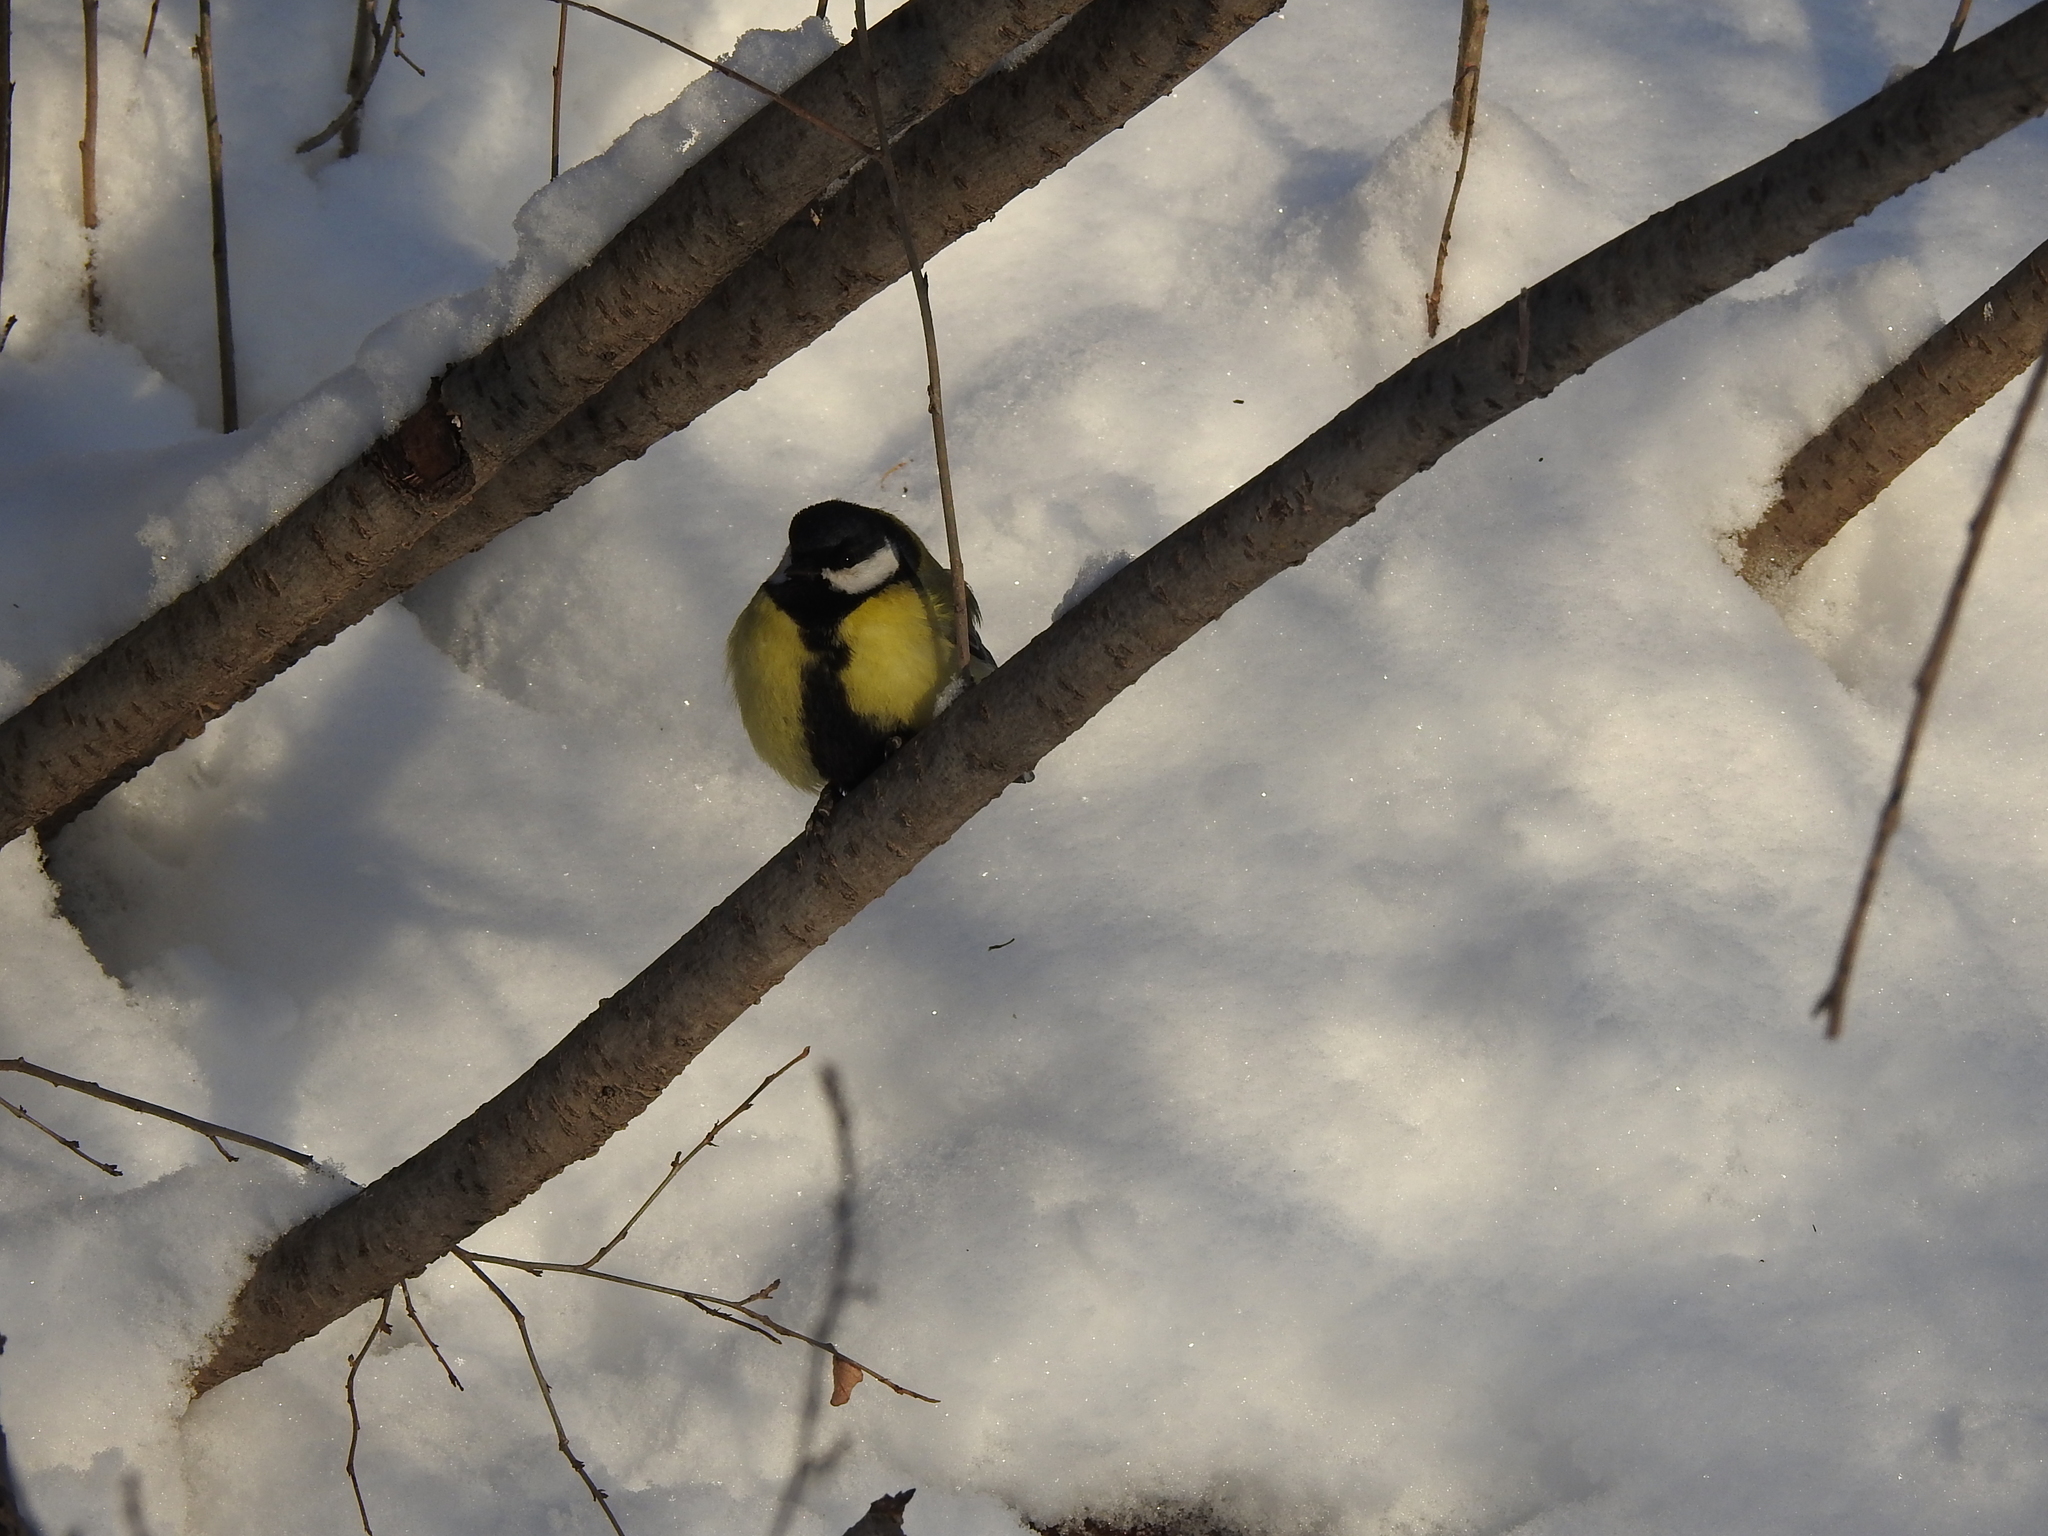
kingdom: Animalia
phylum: Chordata
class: Aves
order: Passeriformes
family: Paridae
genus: Parus
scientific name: Parus major
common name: Great tit
